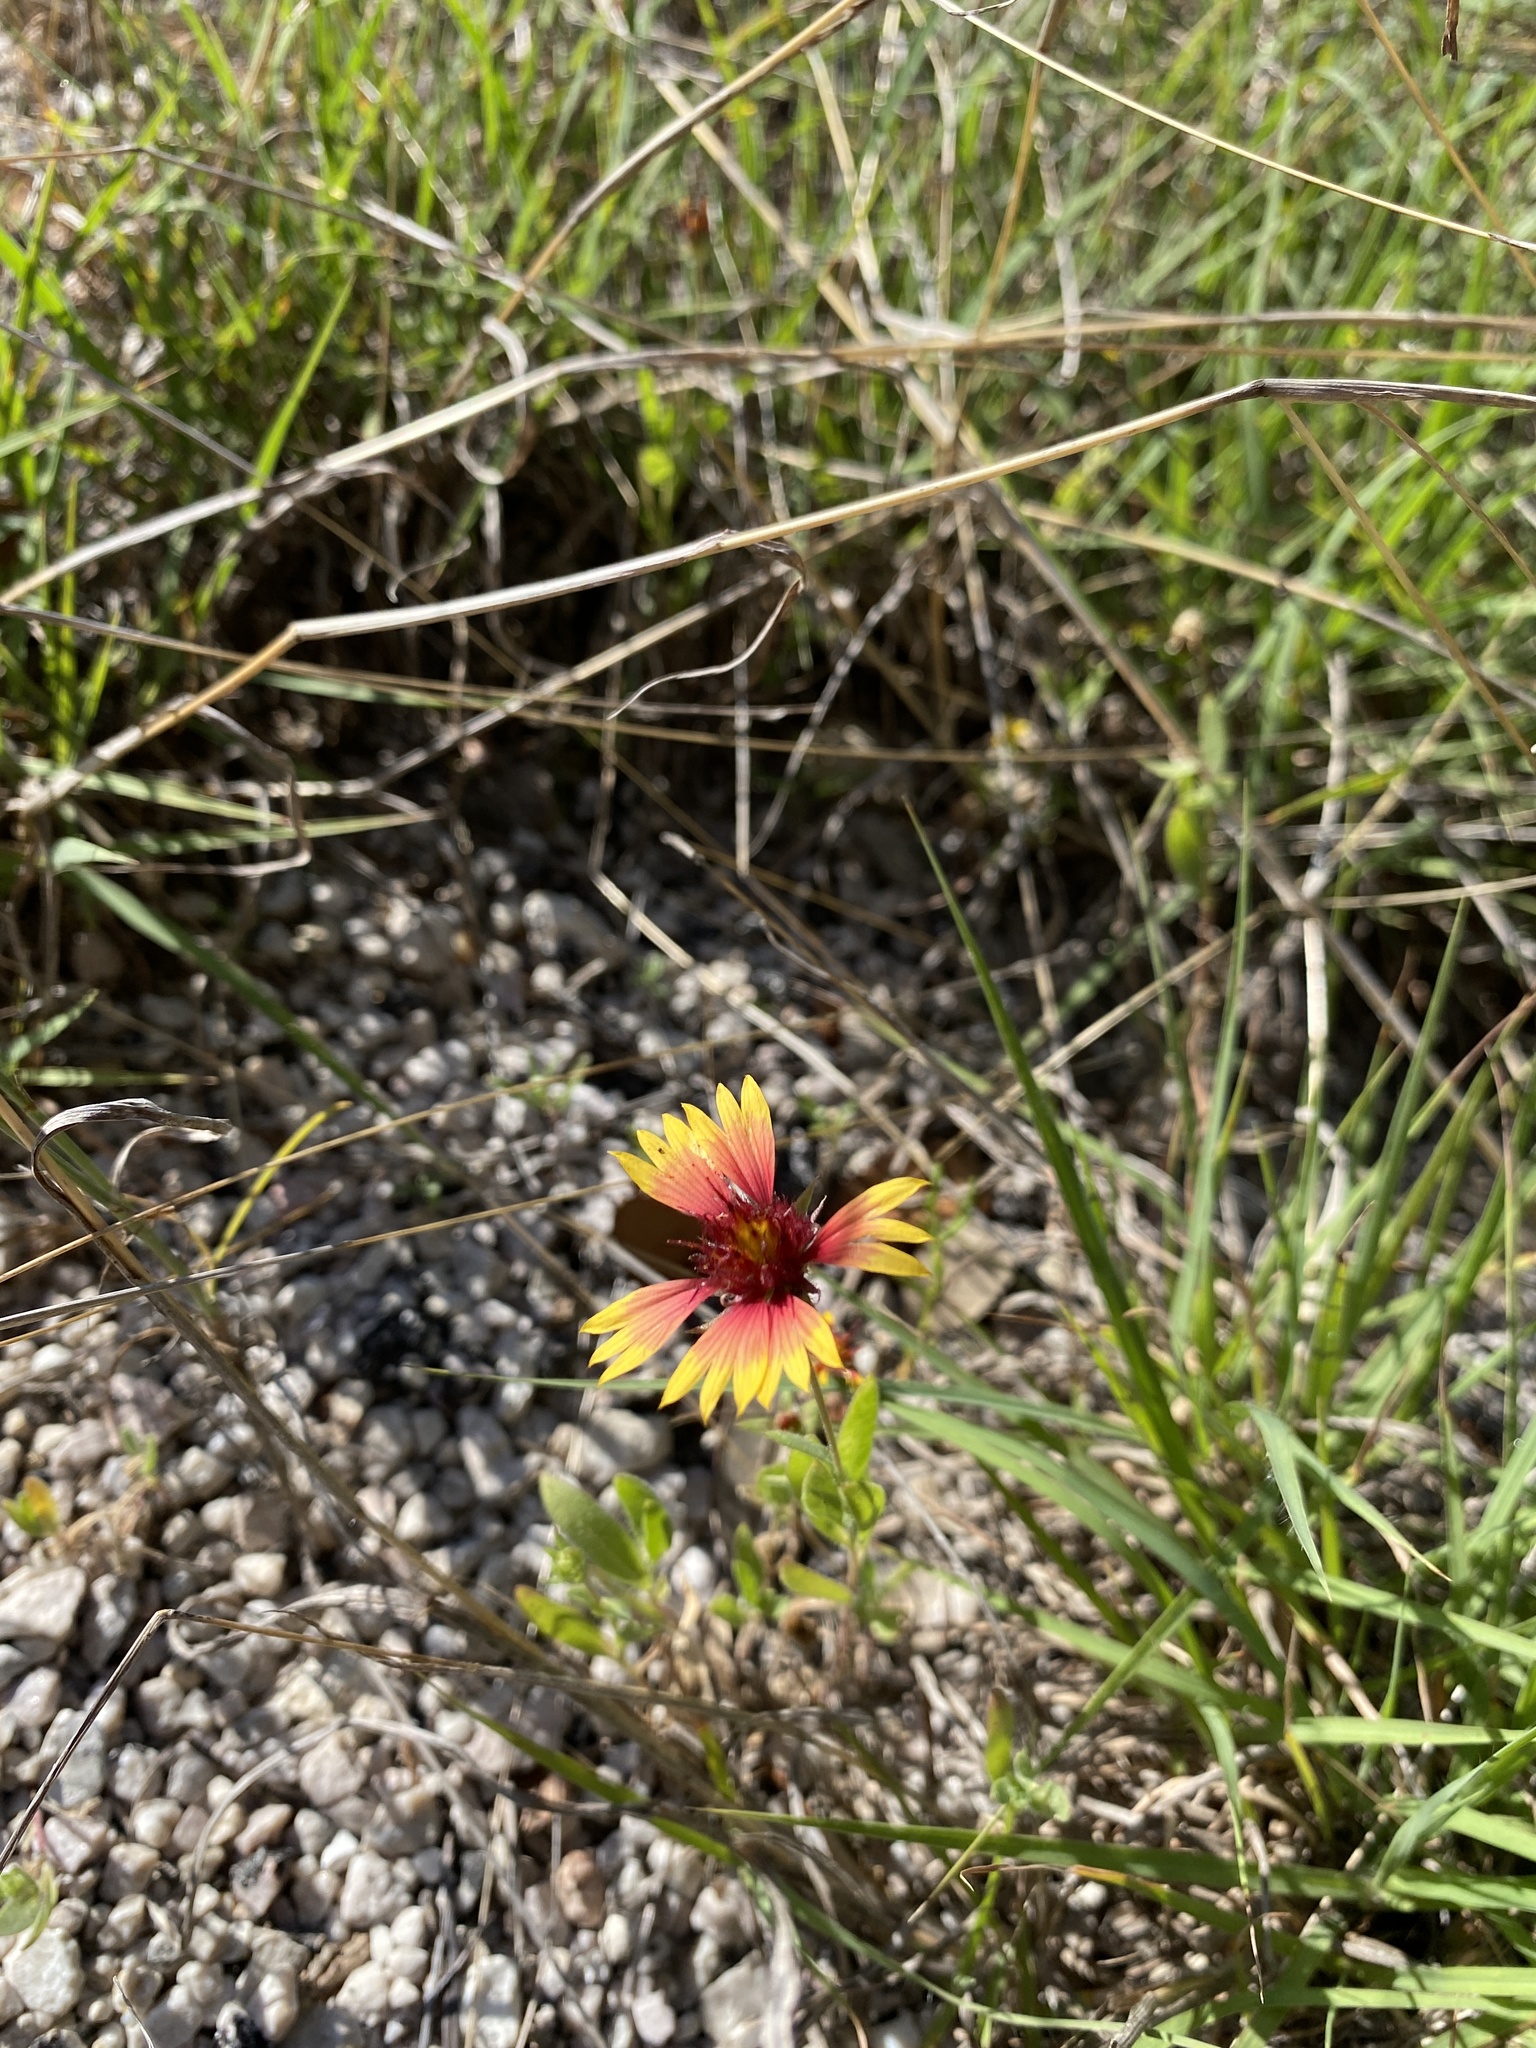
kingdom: Plantae
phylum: Tracheophyta
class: Magnoliopsida
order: Asterales
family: Asteraceae
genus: Gaillardia
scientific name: Gaillardia pulchella
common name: Firewheel
